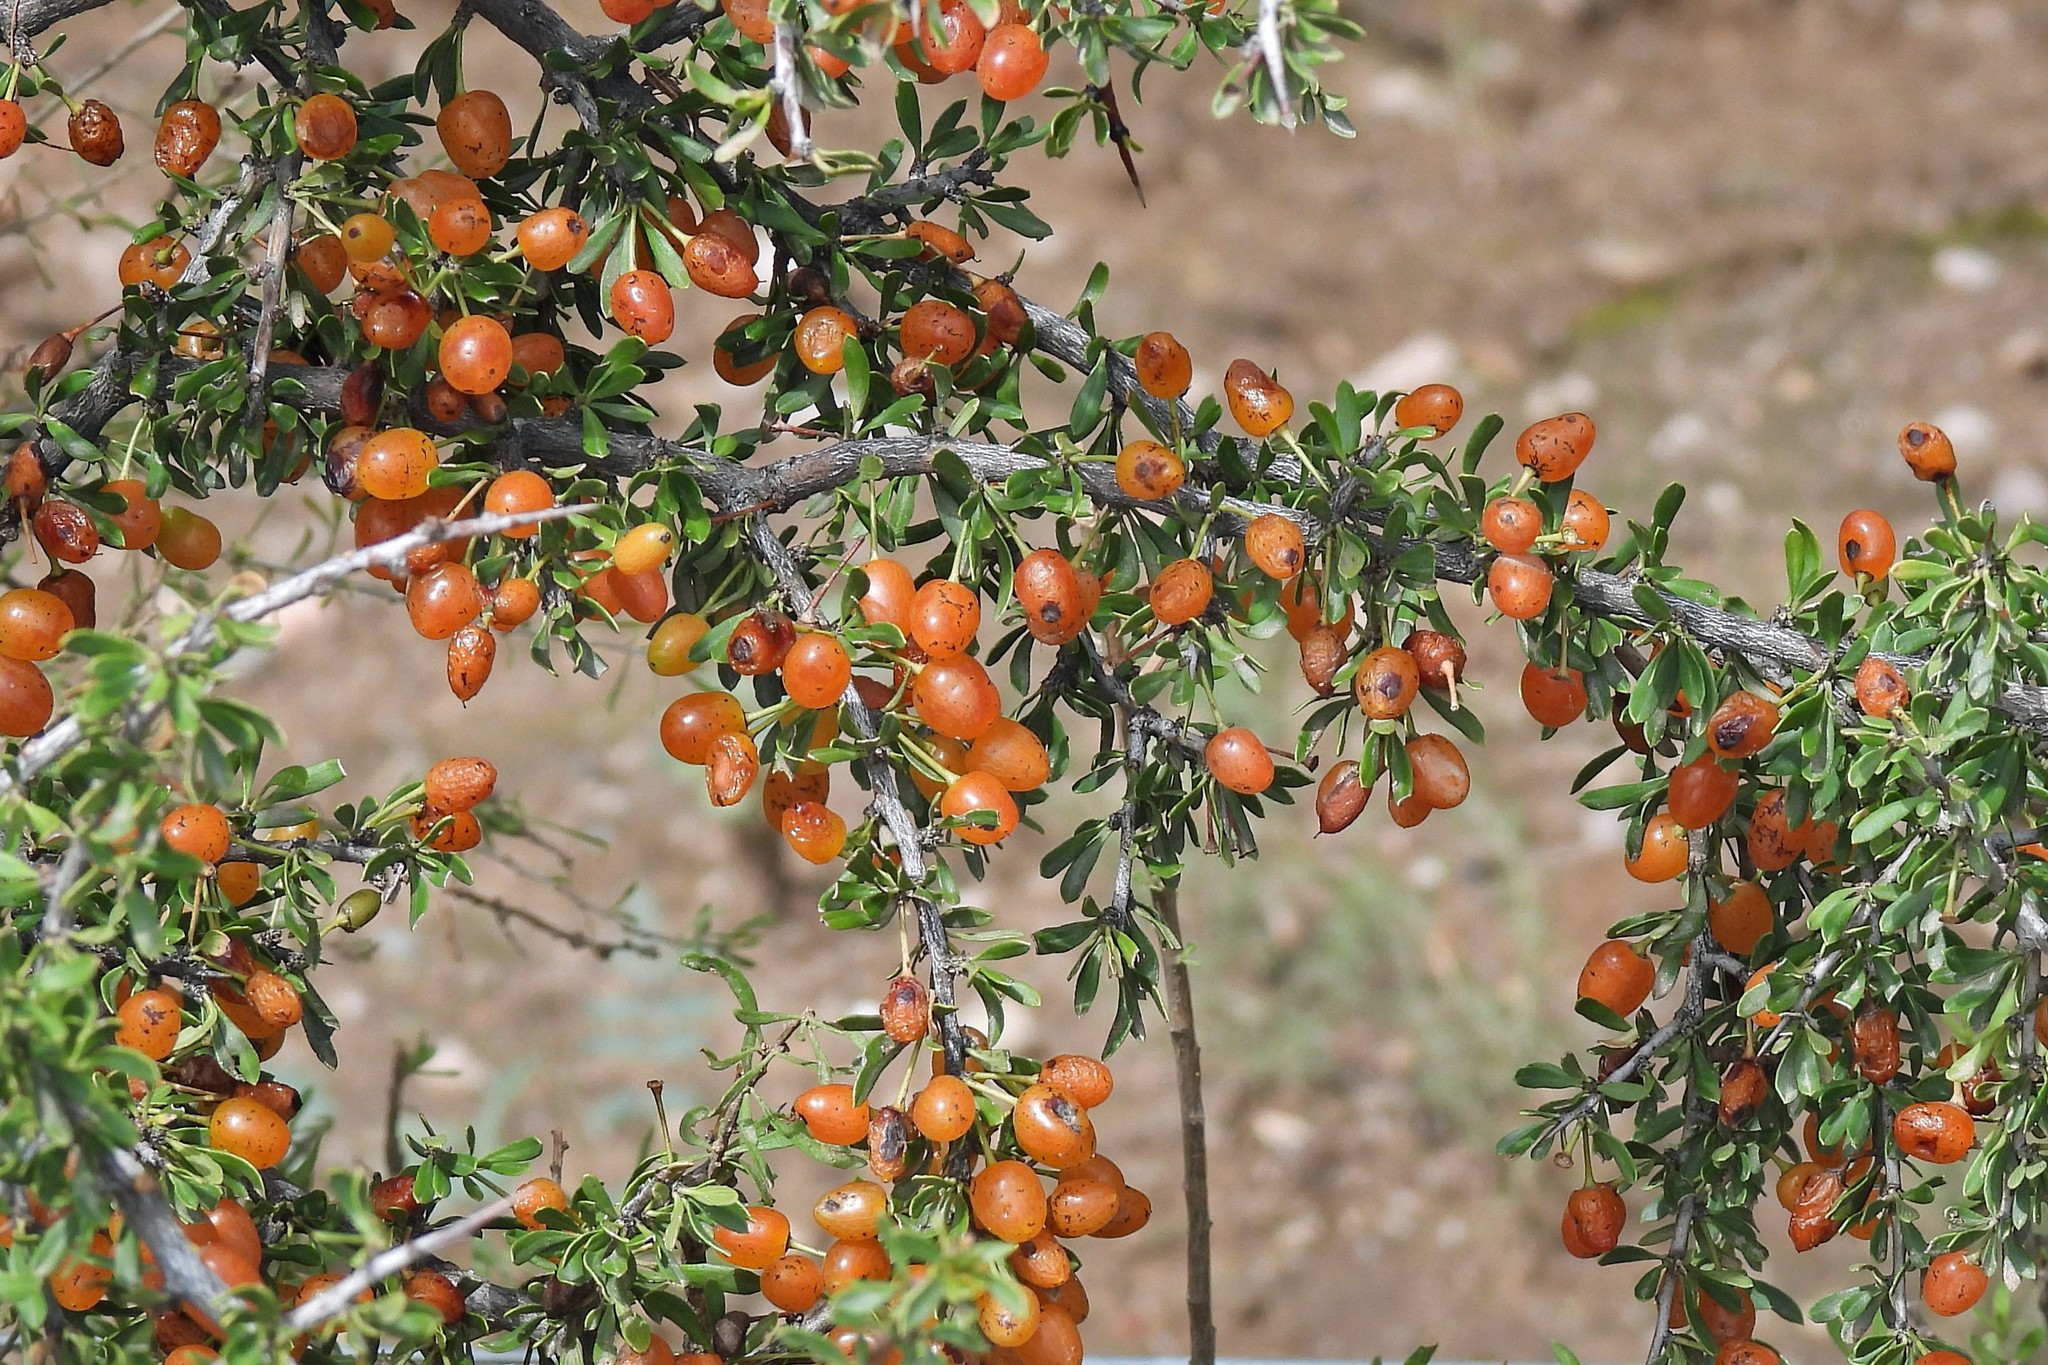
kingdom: Plantae
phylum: Tracheophyta
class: Magnoliopsida
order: Rosales
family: Rhamnaceae
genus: Condalia
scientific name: Condalia microphylla
